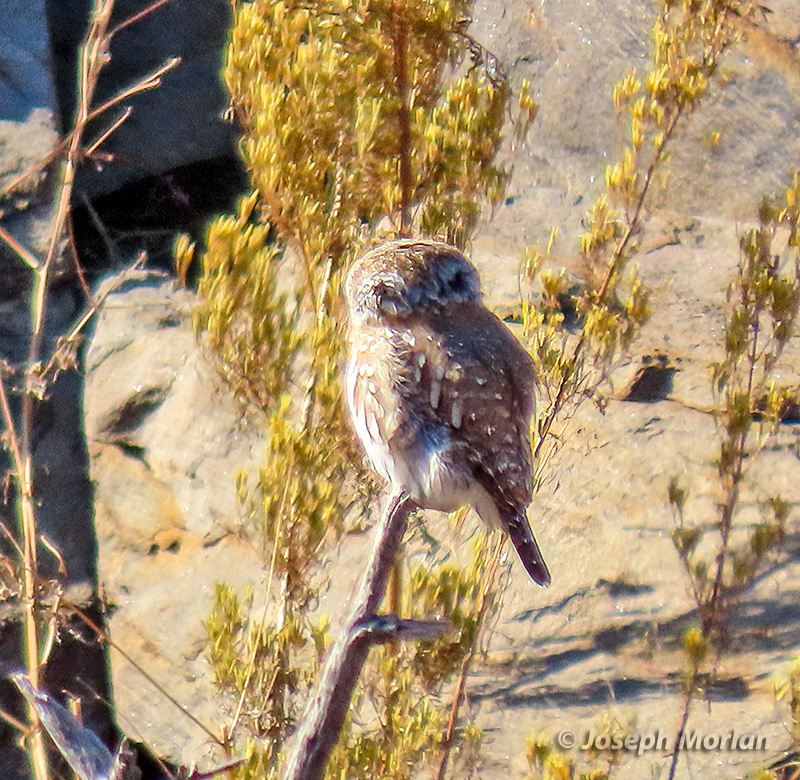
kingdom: Animalia
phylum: Chordata
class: Aves
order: Strigiformes
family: Strigidae
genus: Glaucidium
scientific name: Glaucidium perlatum
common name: Pearl-spotted owlet
